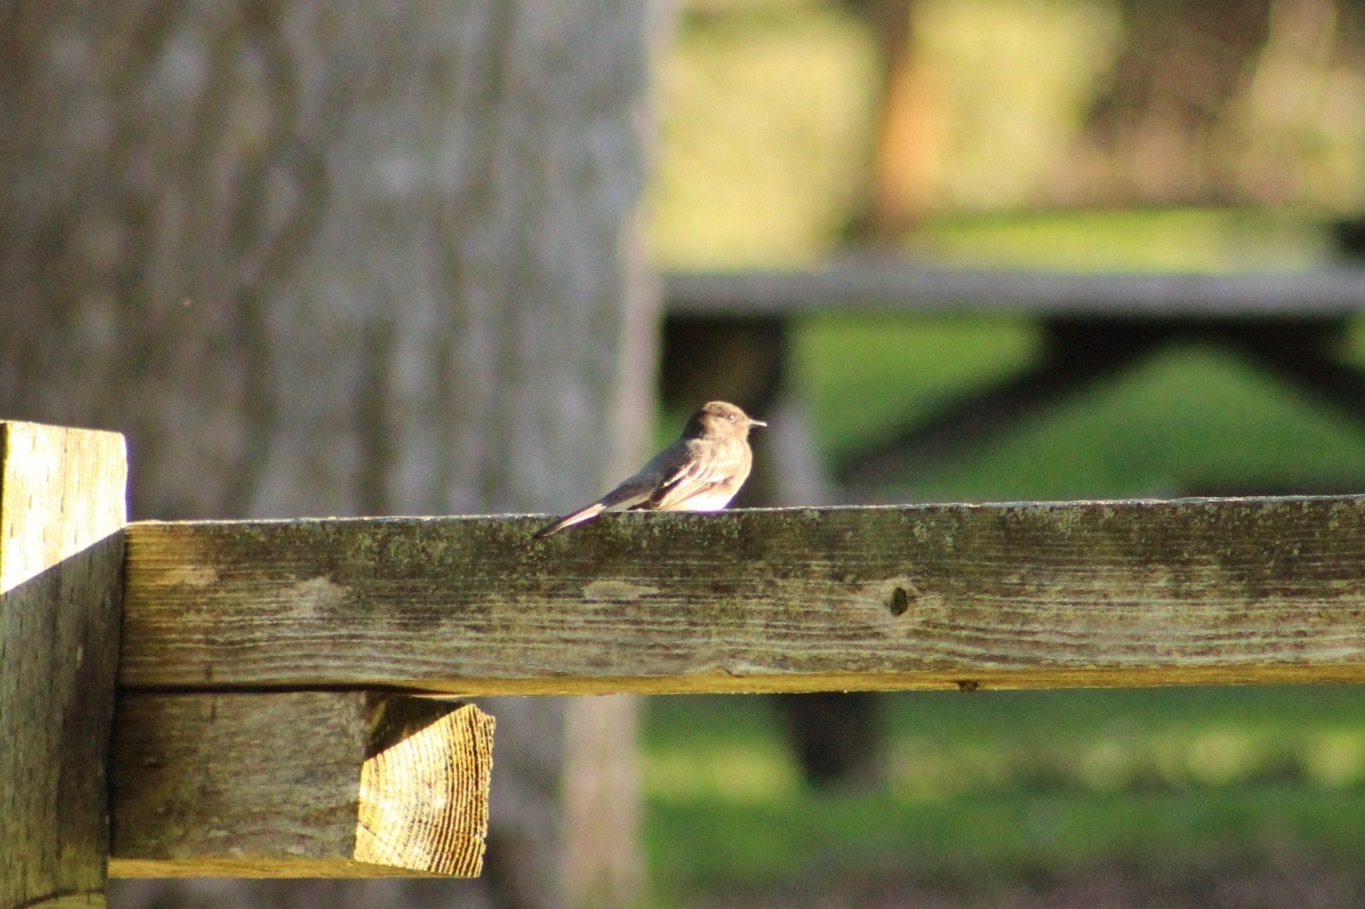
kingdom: Animalia
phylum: Chordata
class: Aves
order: Passeriformes
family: Tyrannidae
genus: Sayornis
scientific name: Sayornis nigricans
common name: Black phoebe
